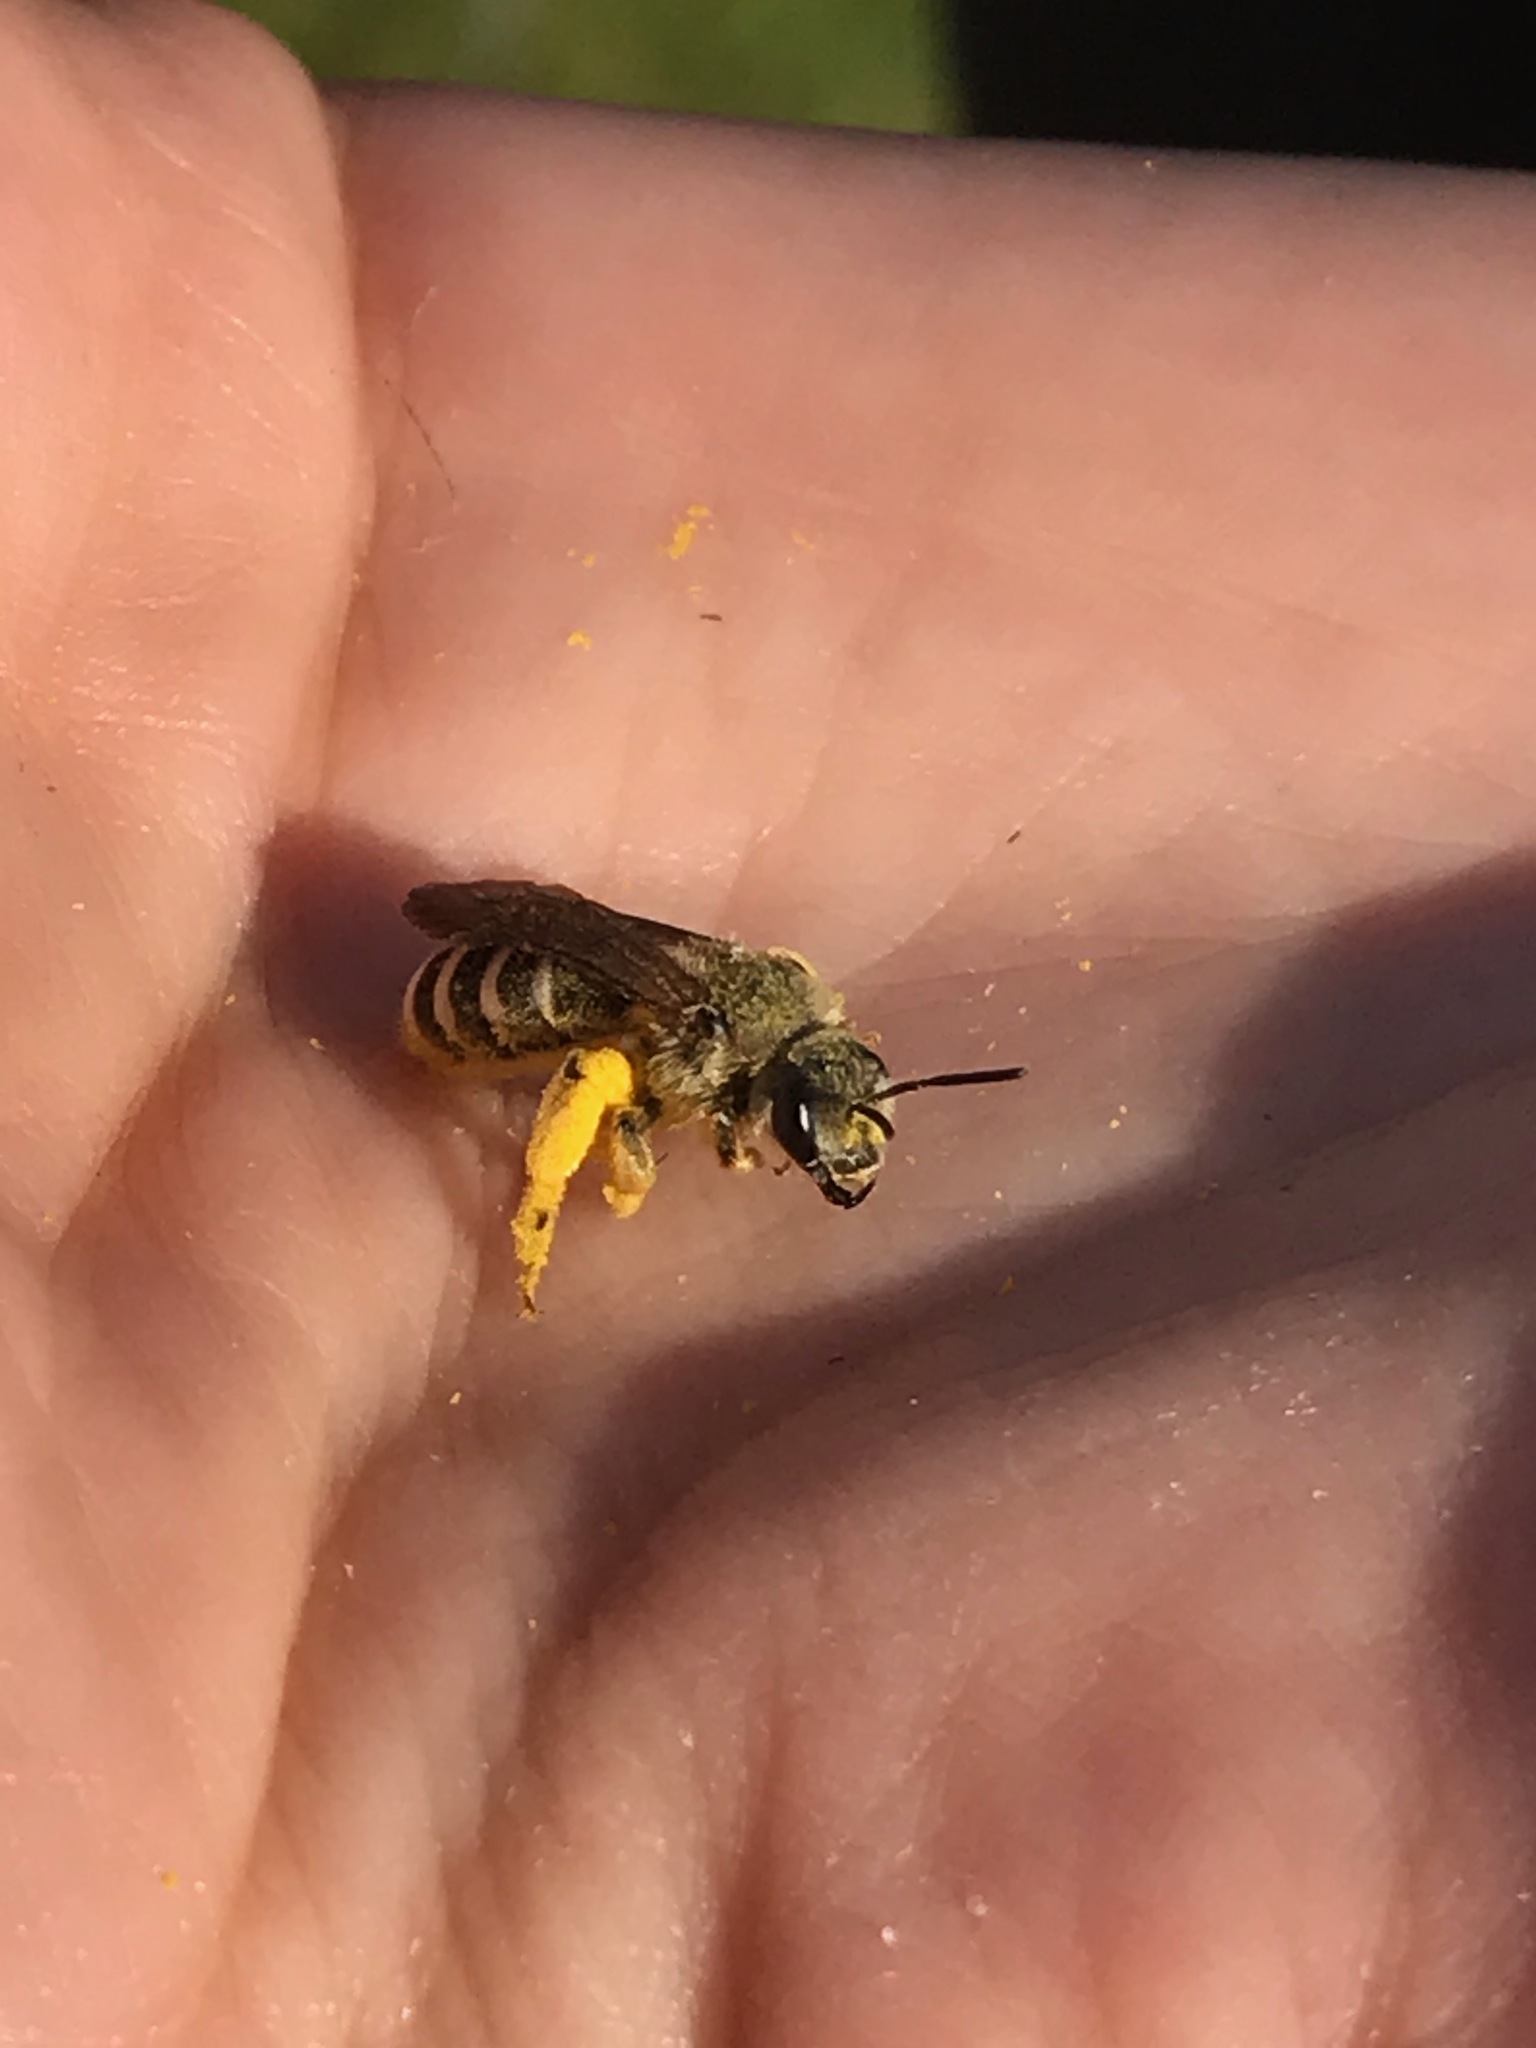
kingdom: Animalia
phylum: Arthropoda
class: Insecta
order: Hymenoptera
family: Halictidae
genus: Halictus
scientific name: Halictus farinosus
